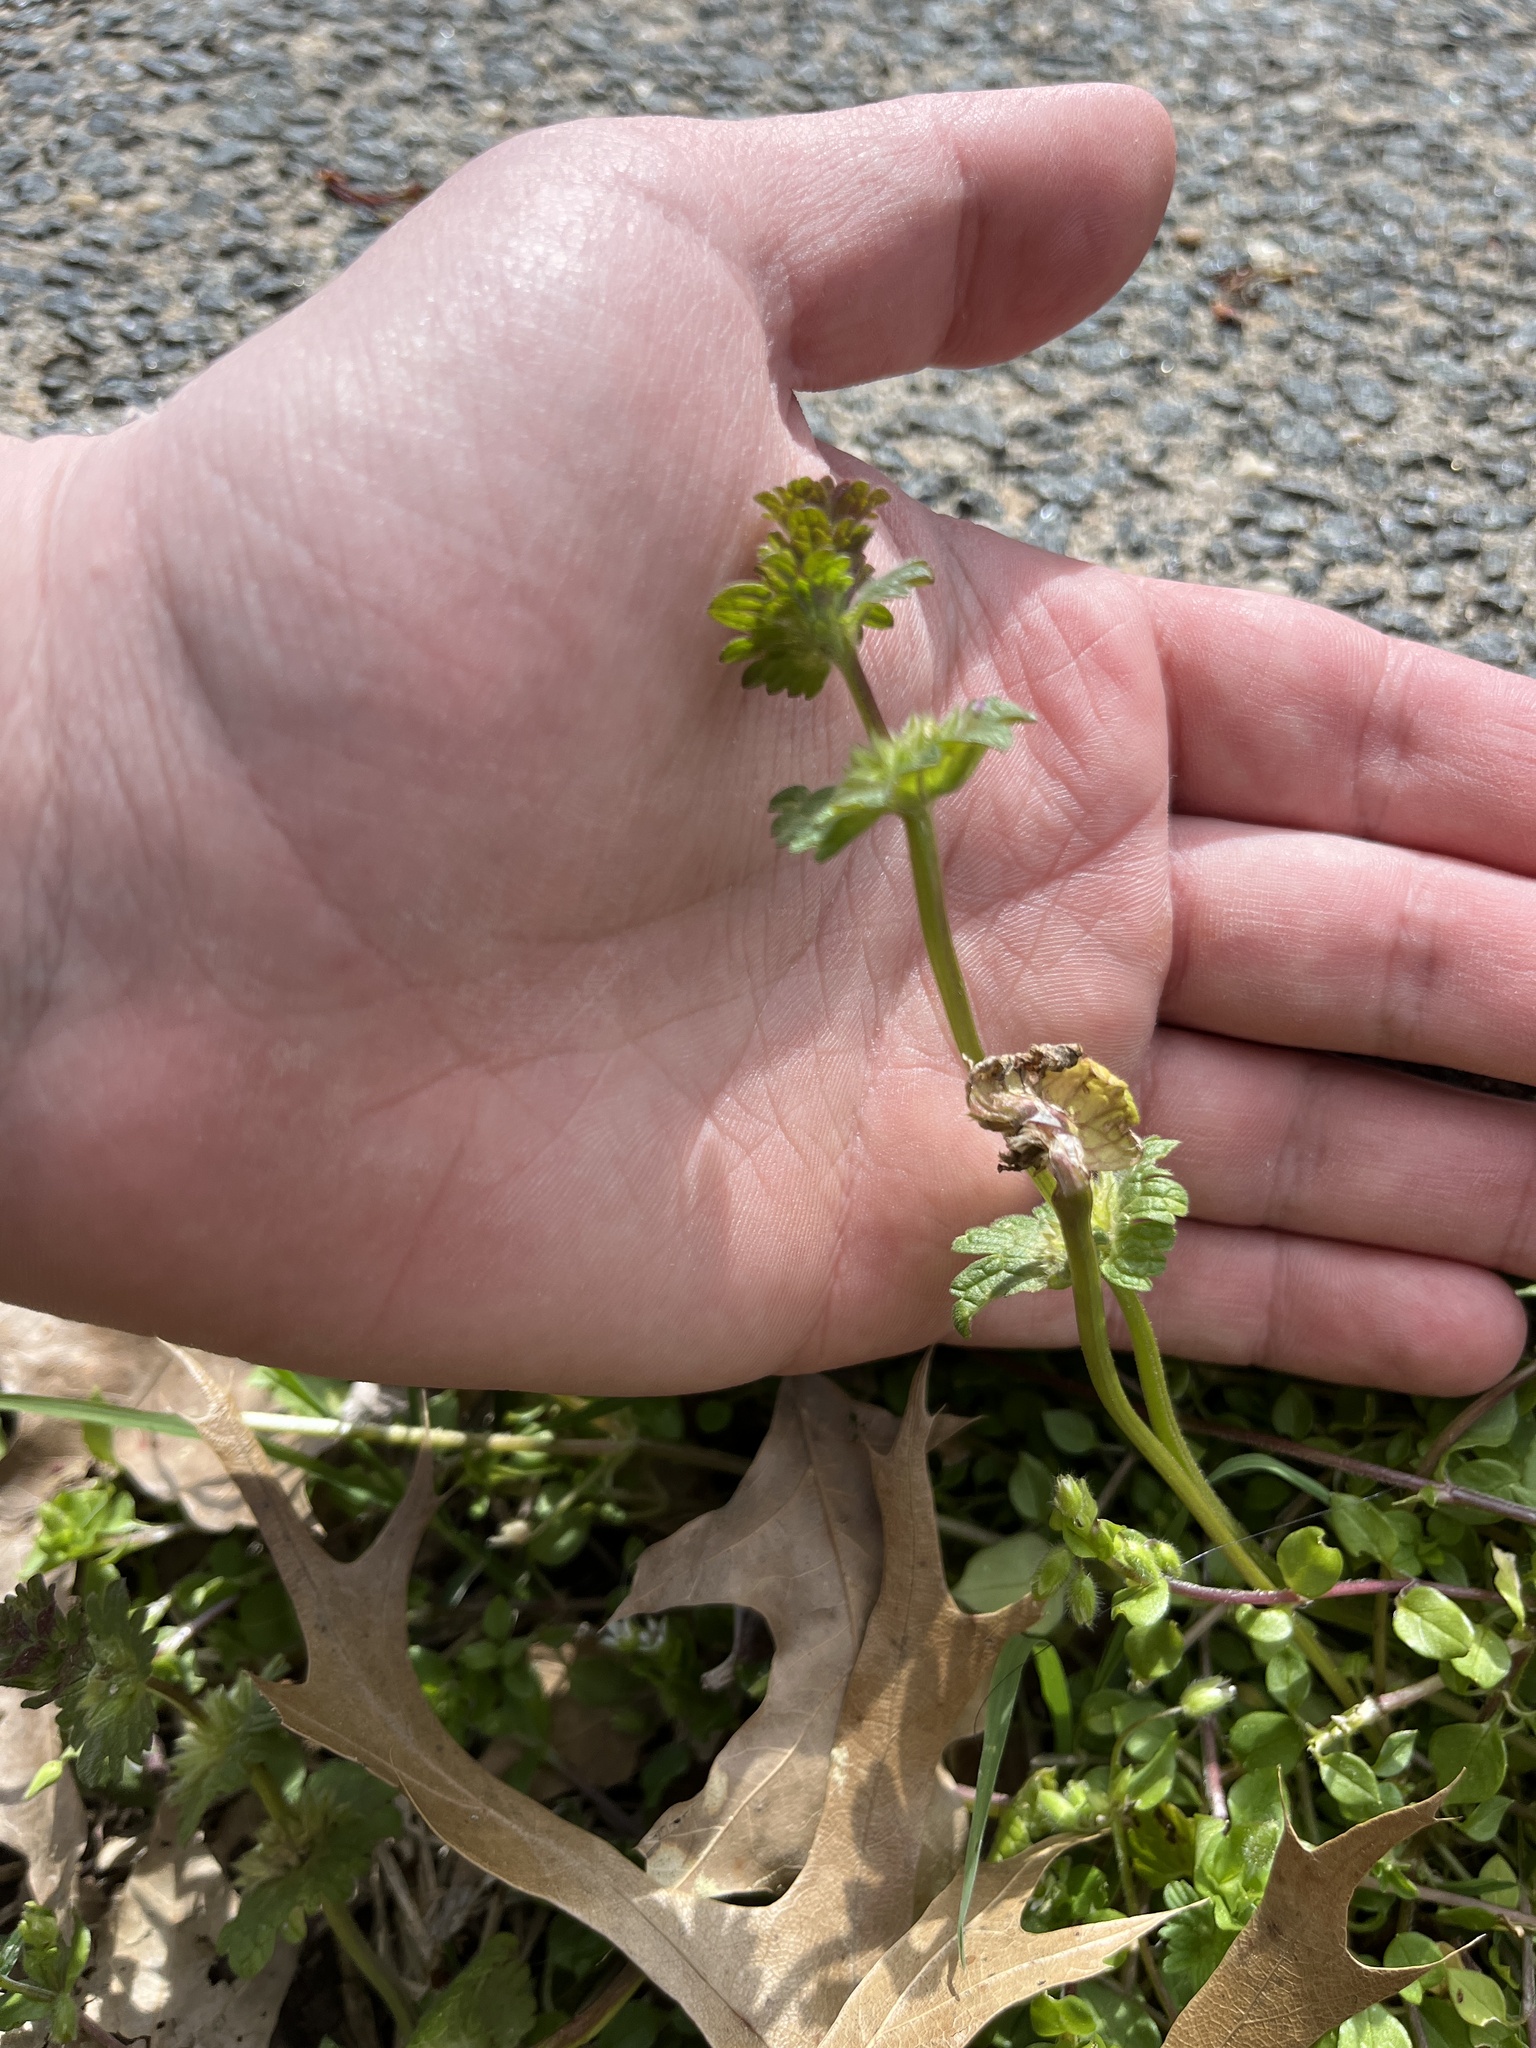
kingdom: Plantae
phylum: Tracheophyta
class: Magnoliopsida
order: Lamiales
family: Lamiaceae
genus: Lamium
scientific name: Lamium amplexicaule
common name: Henbit dead-nettle
